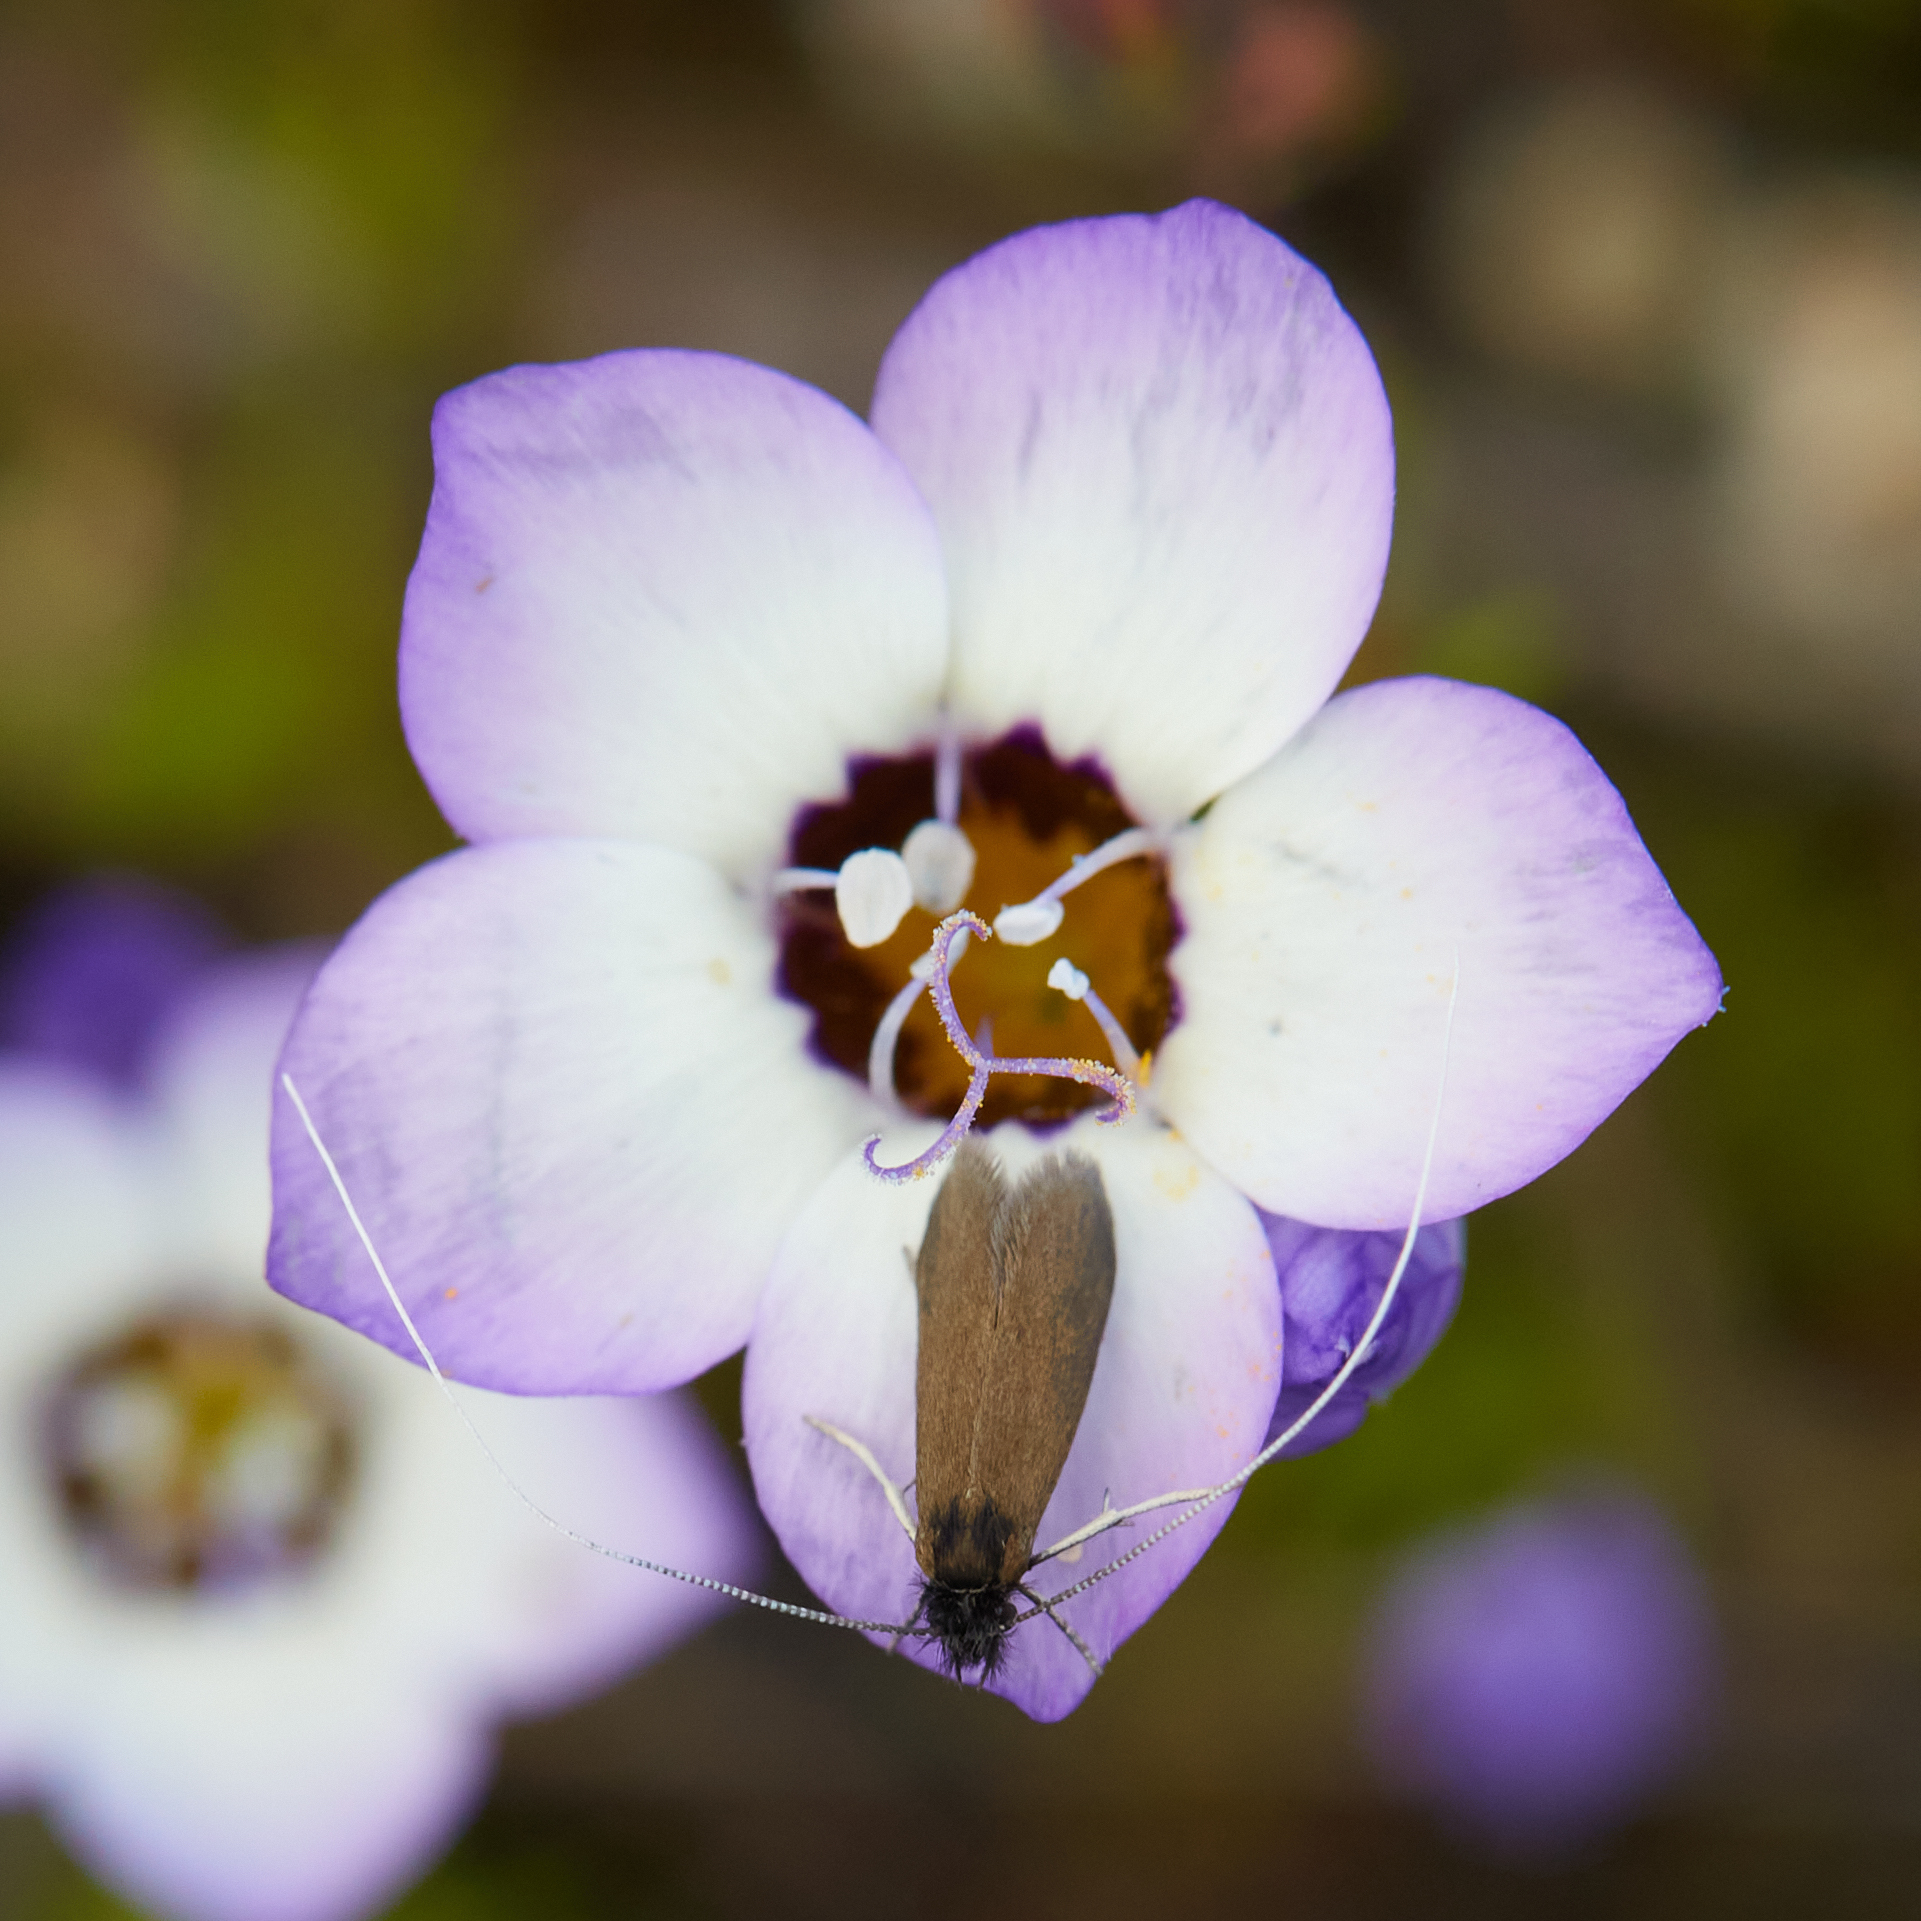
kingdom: Animalia
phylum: Arthropoda
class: Insecta
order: Lepidoptera
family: Adelidae
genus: Adela
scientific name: Adela punctiferella
